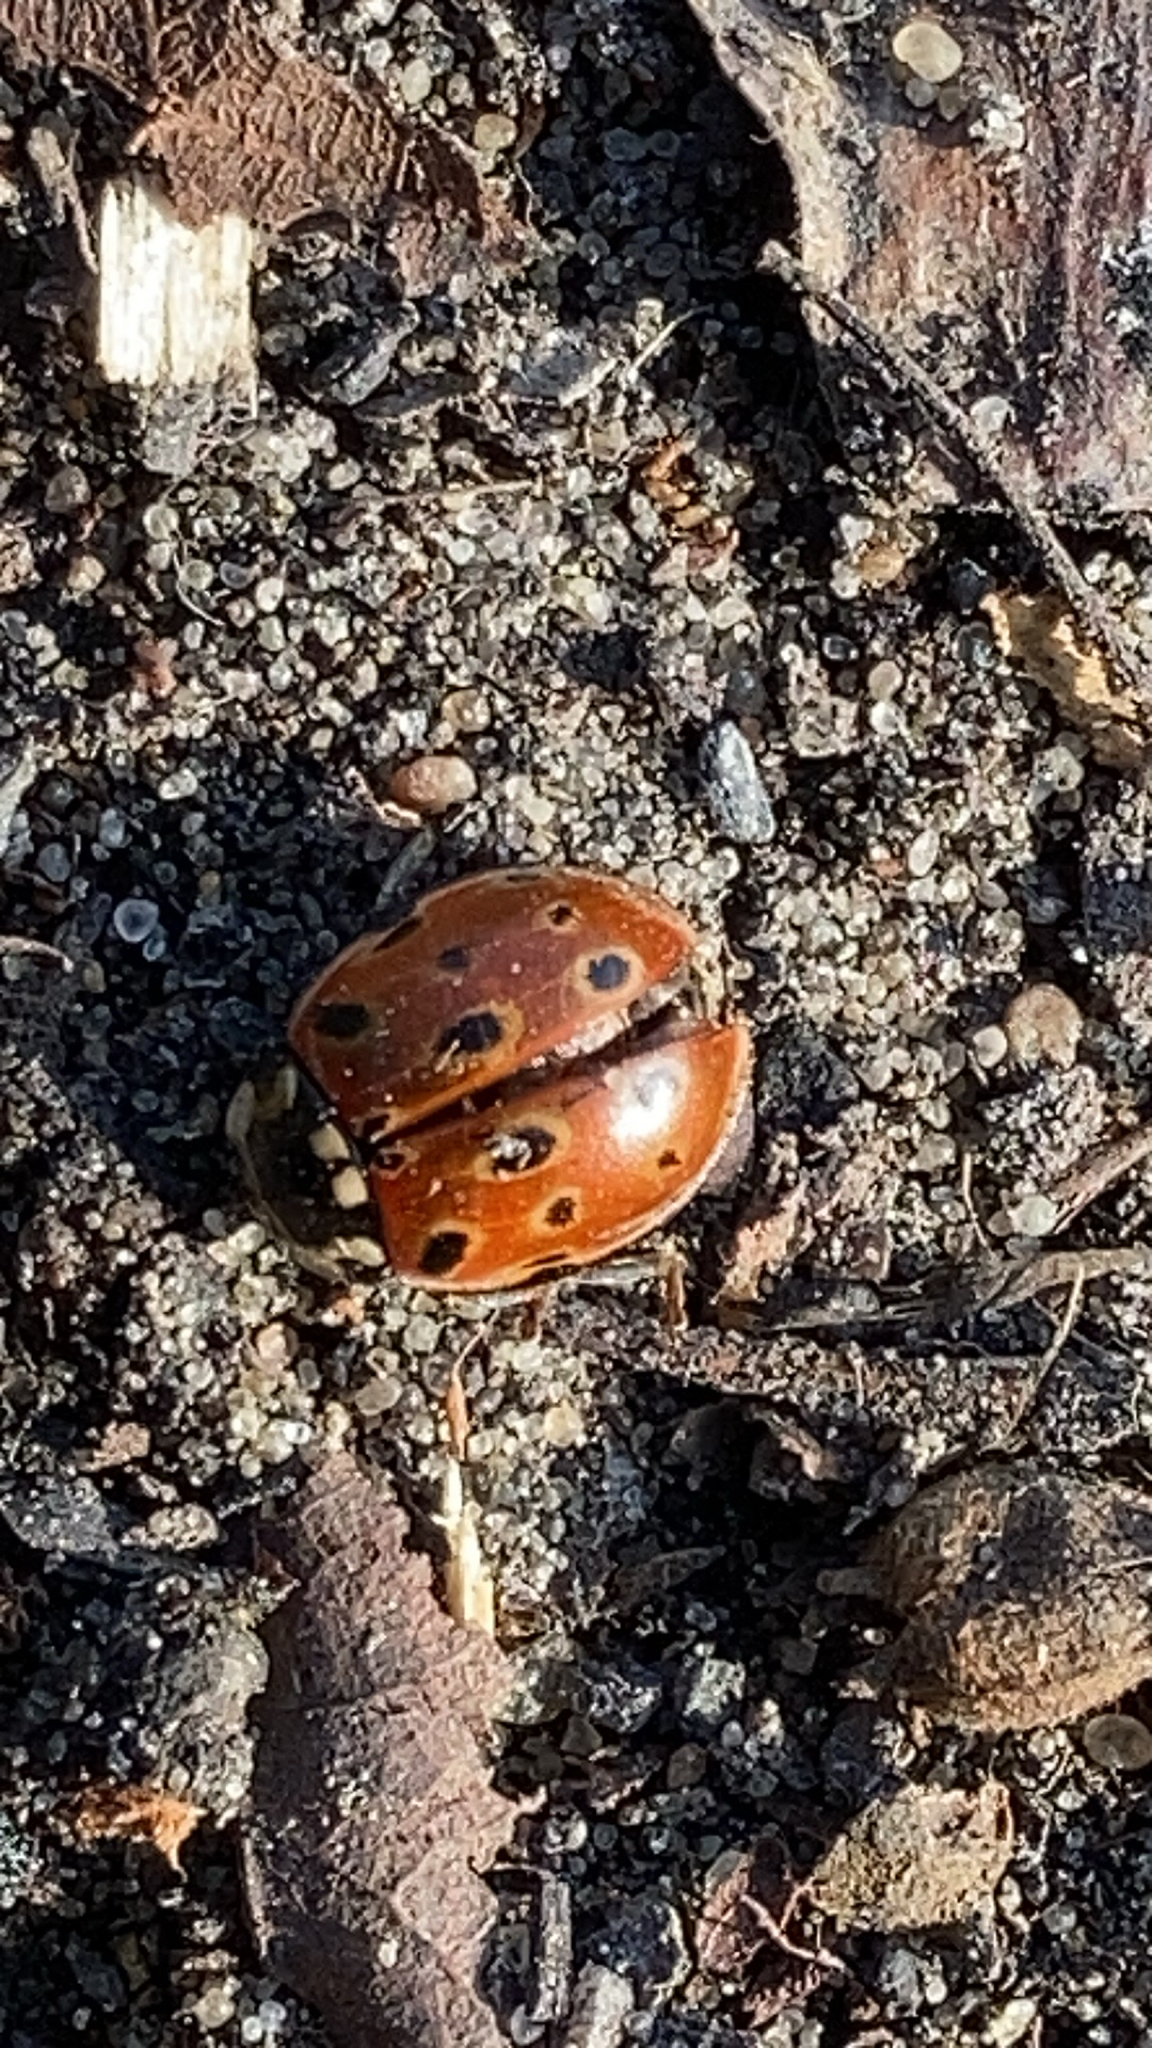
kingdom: Animalia
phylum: Arthropoda
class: Insecta
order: Coleoptera
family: Coccinellidae
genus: Anatis
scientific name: Anatis ocellata
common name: Eyed ladybird
